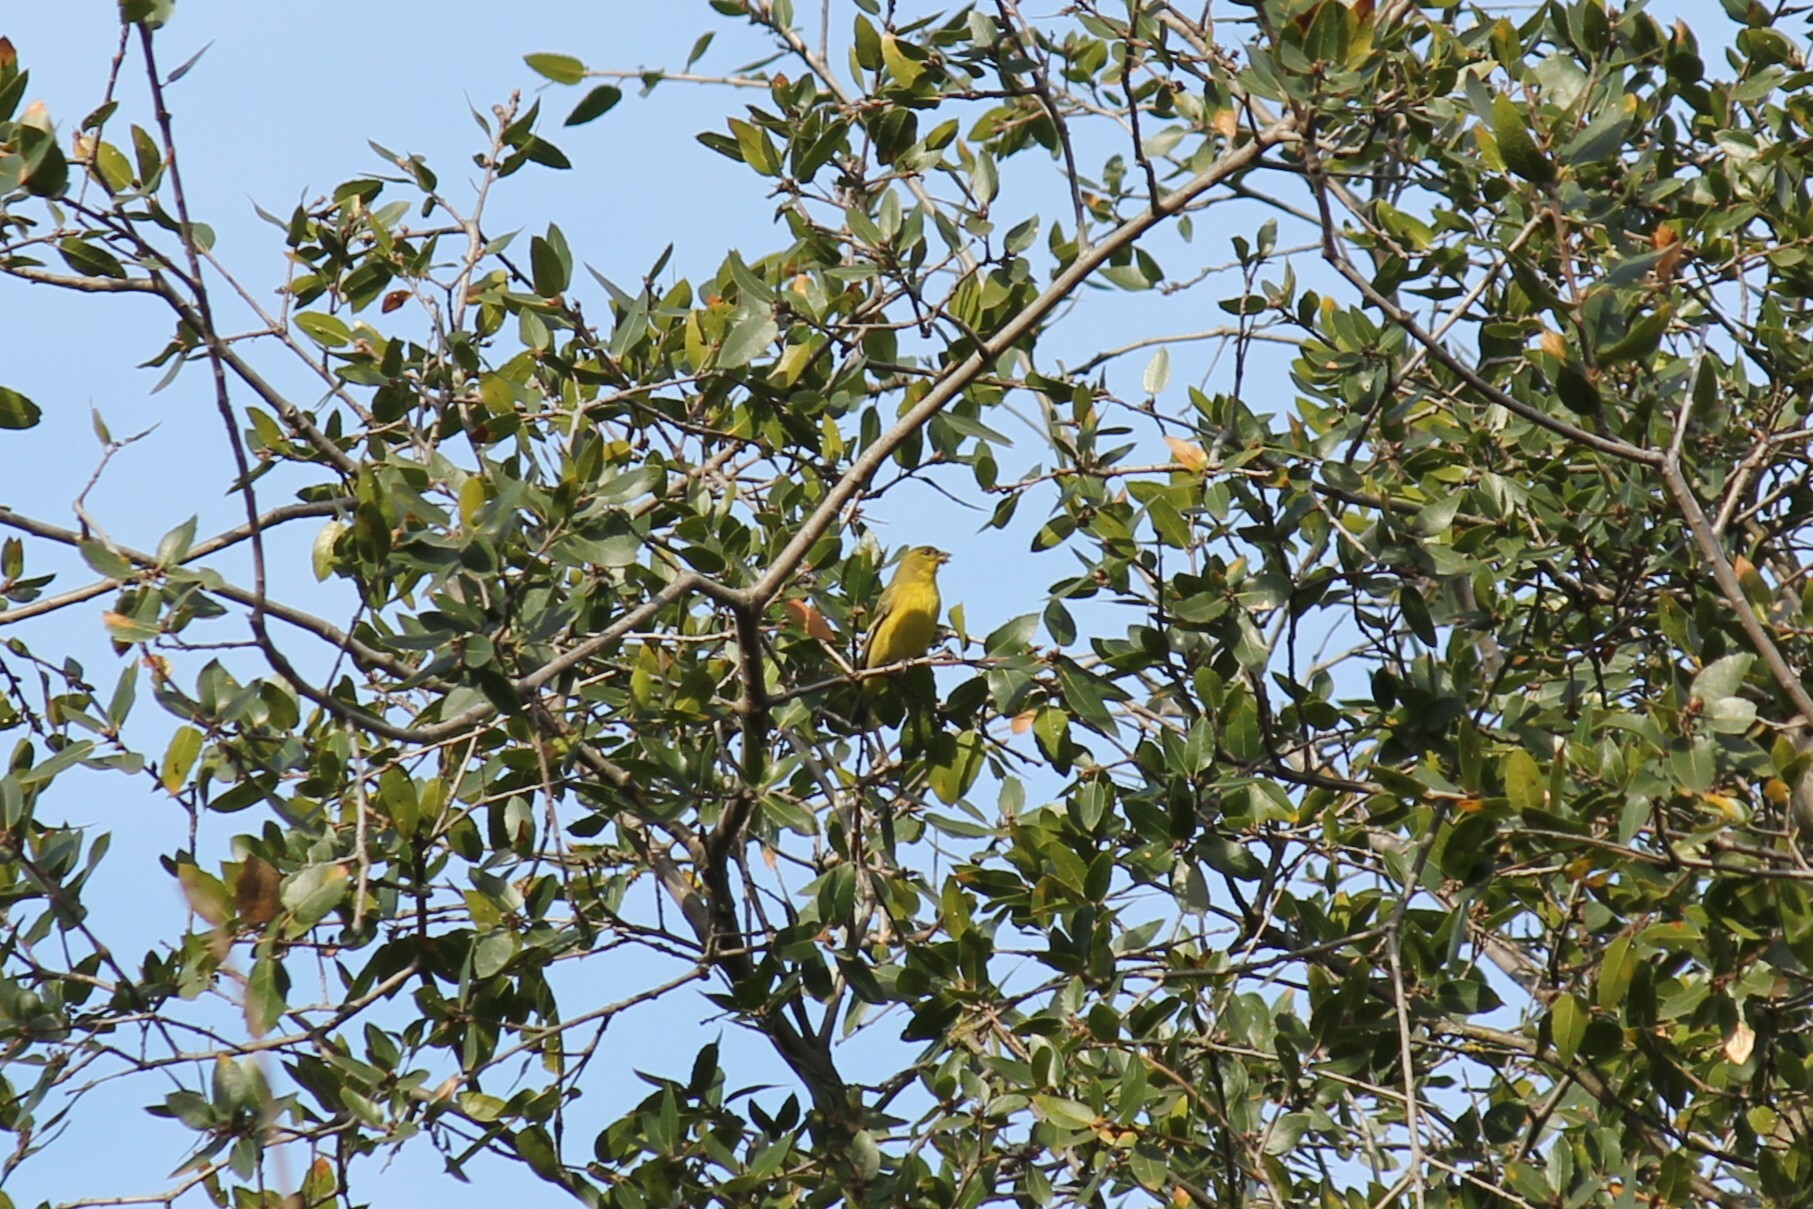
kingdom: Animalia
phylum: Chordata
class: Aves
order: Passeriformes
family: Fringillidae
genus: Spinus
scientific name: Spinus psaltria
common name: Lesser goldfinch
